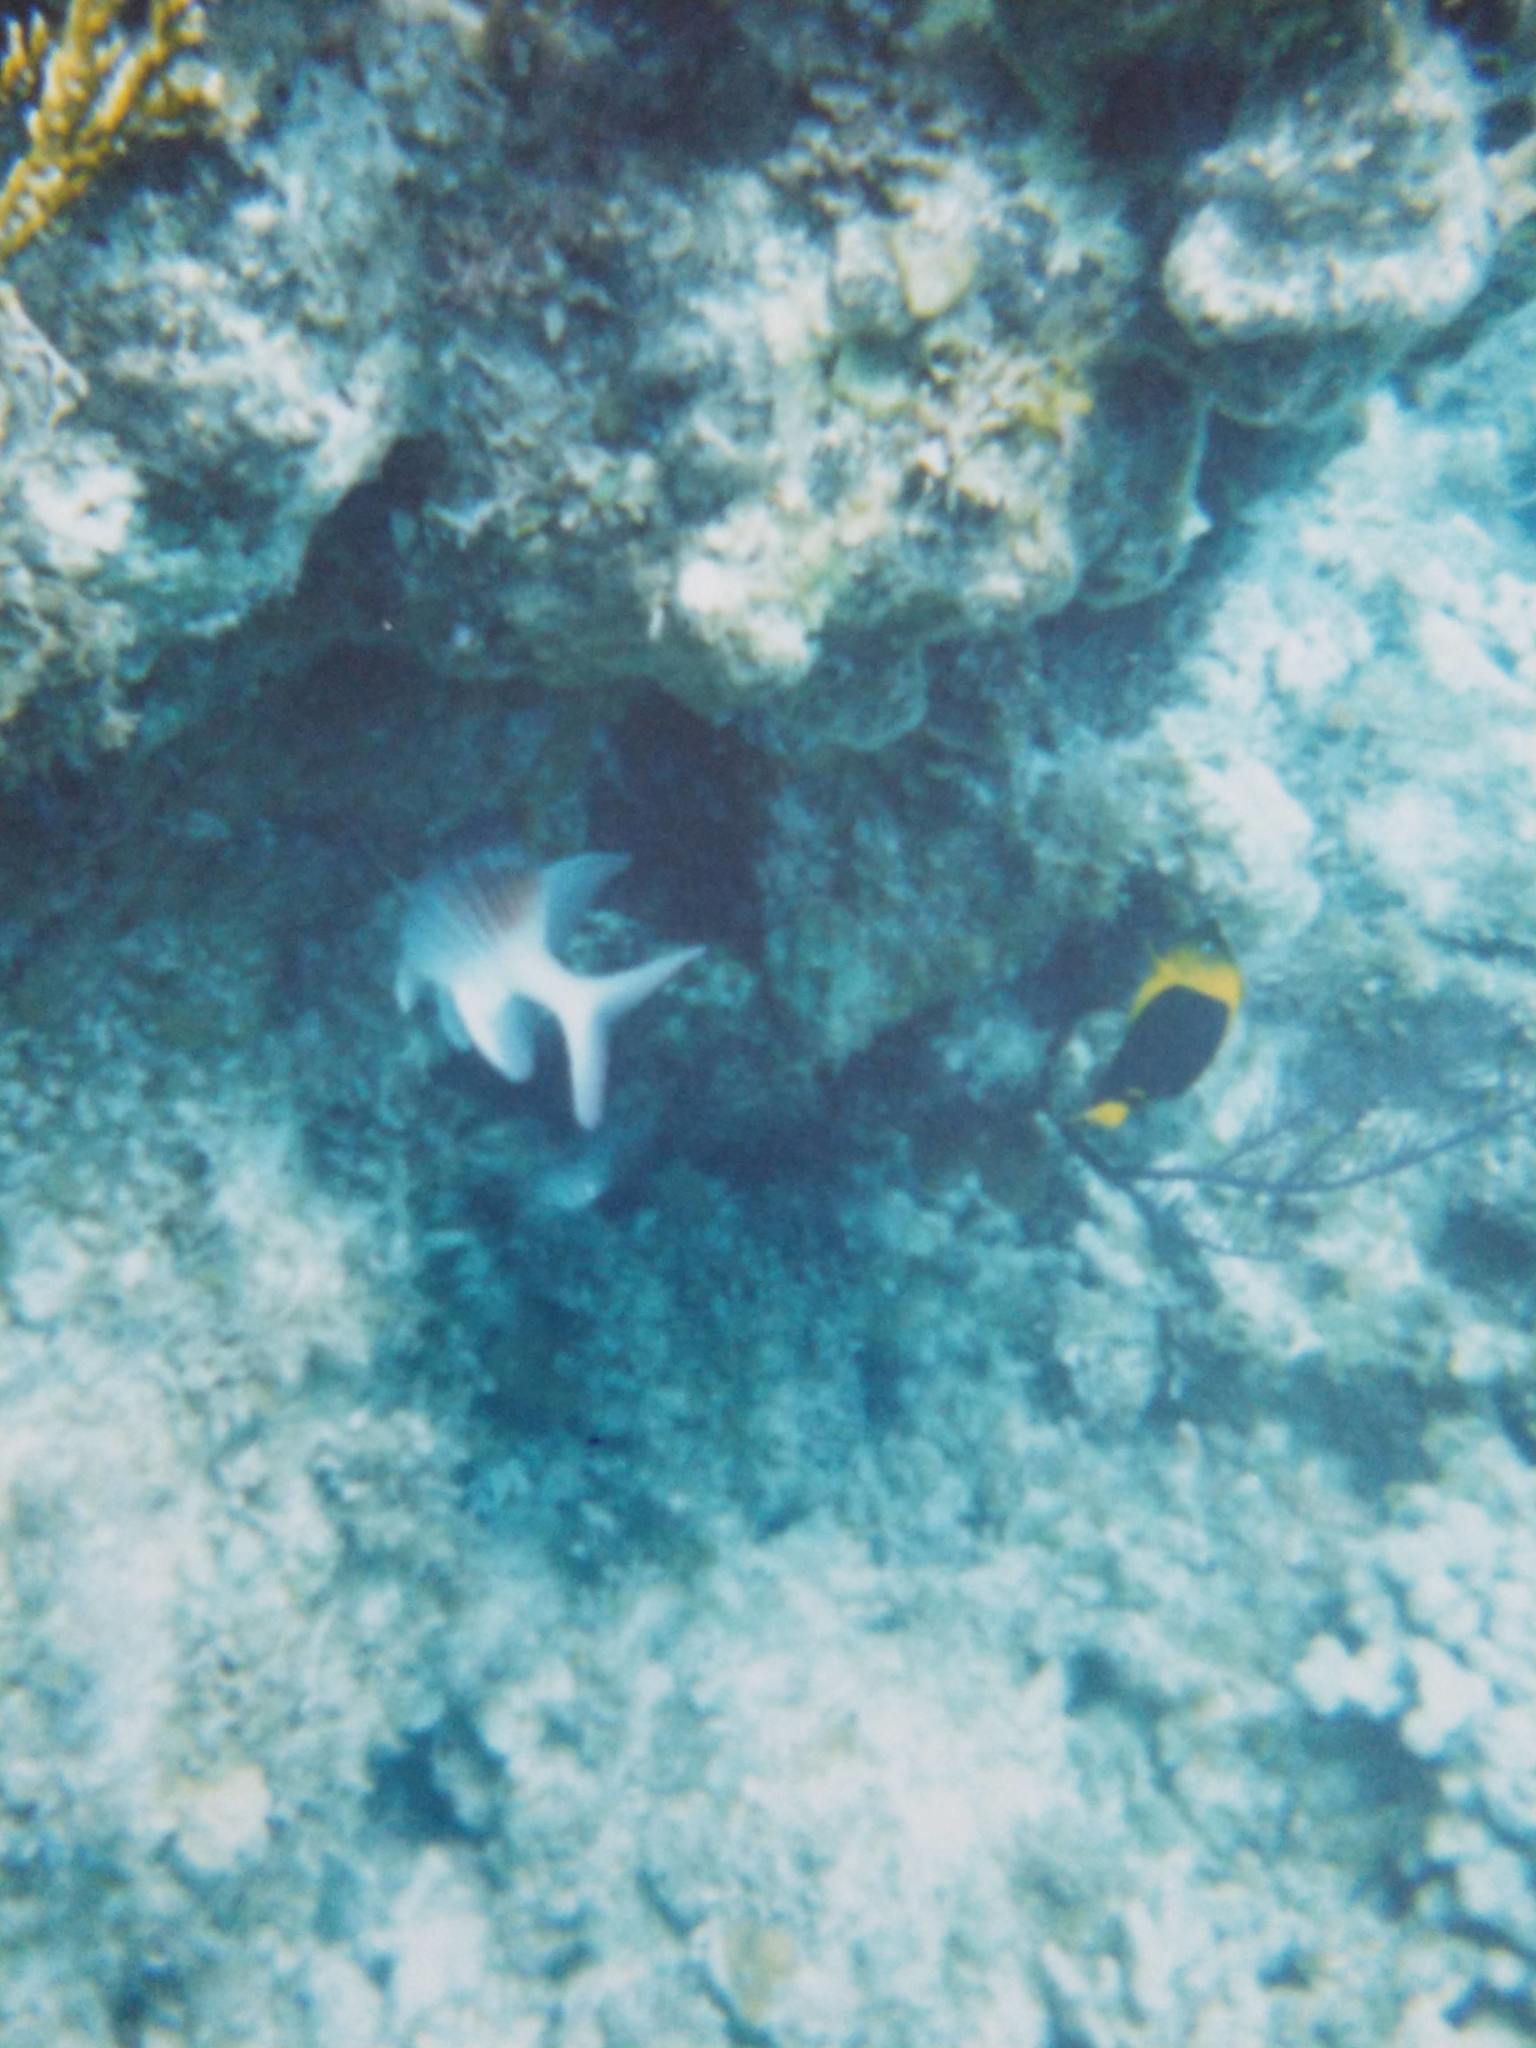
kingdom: Animalia
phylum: Chordata
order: Beryciformes
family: Holocentridae
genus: Holocentrus
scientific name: Holocentrus adscensionis
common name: Squirrelfish
